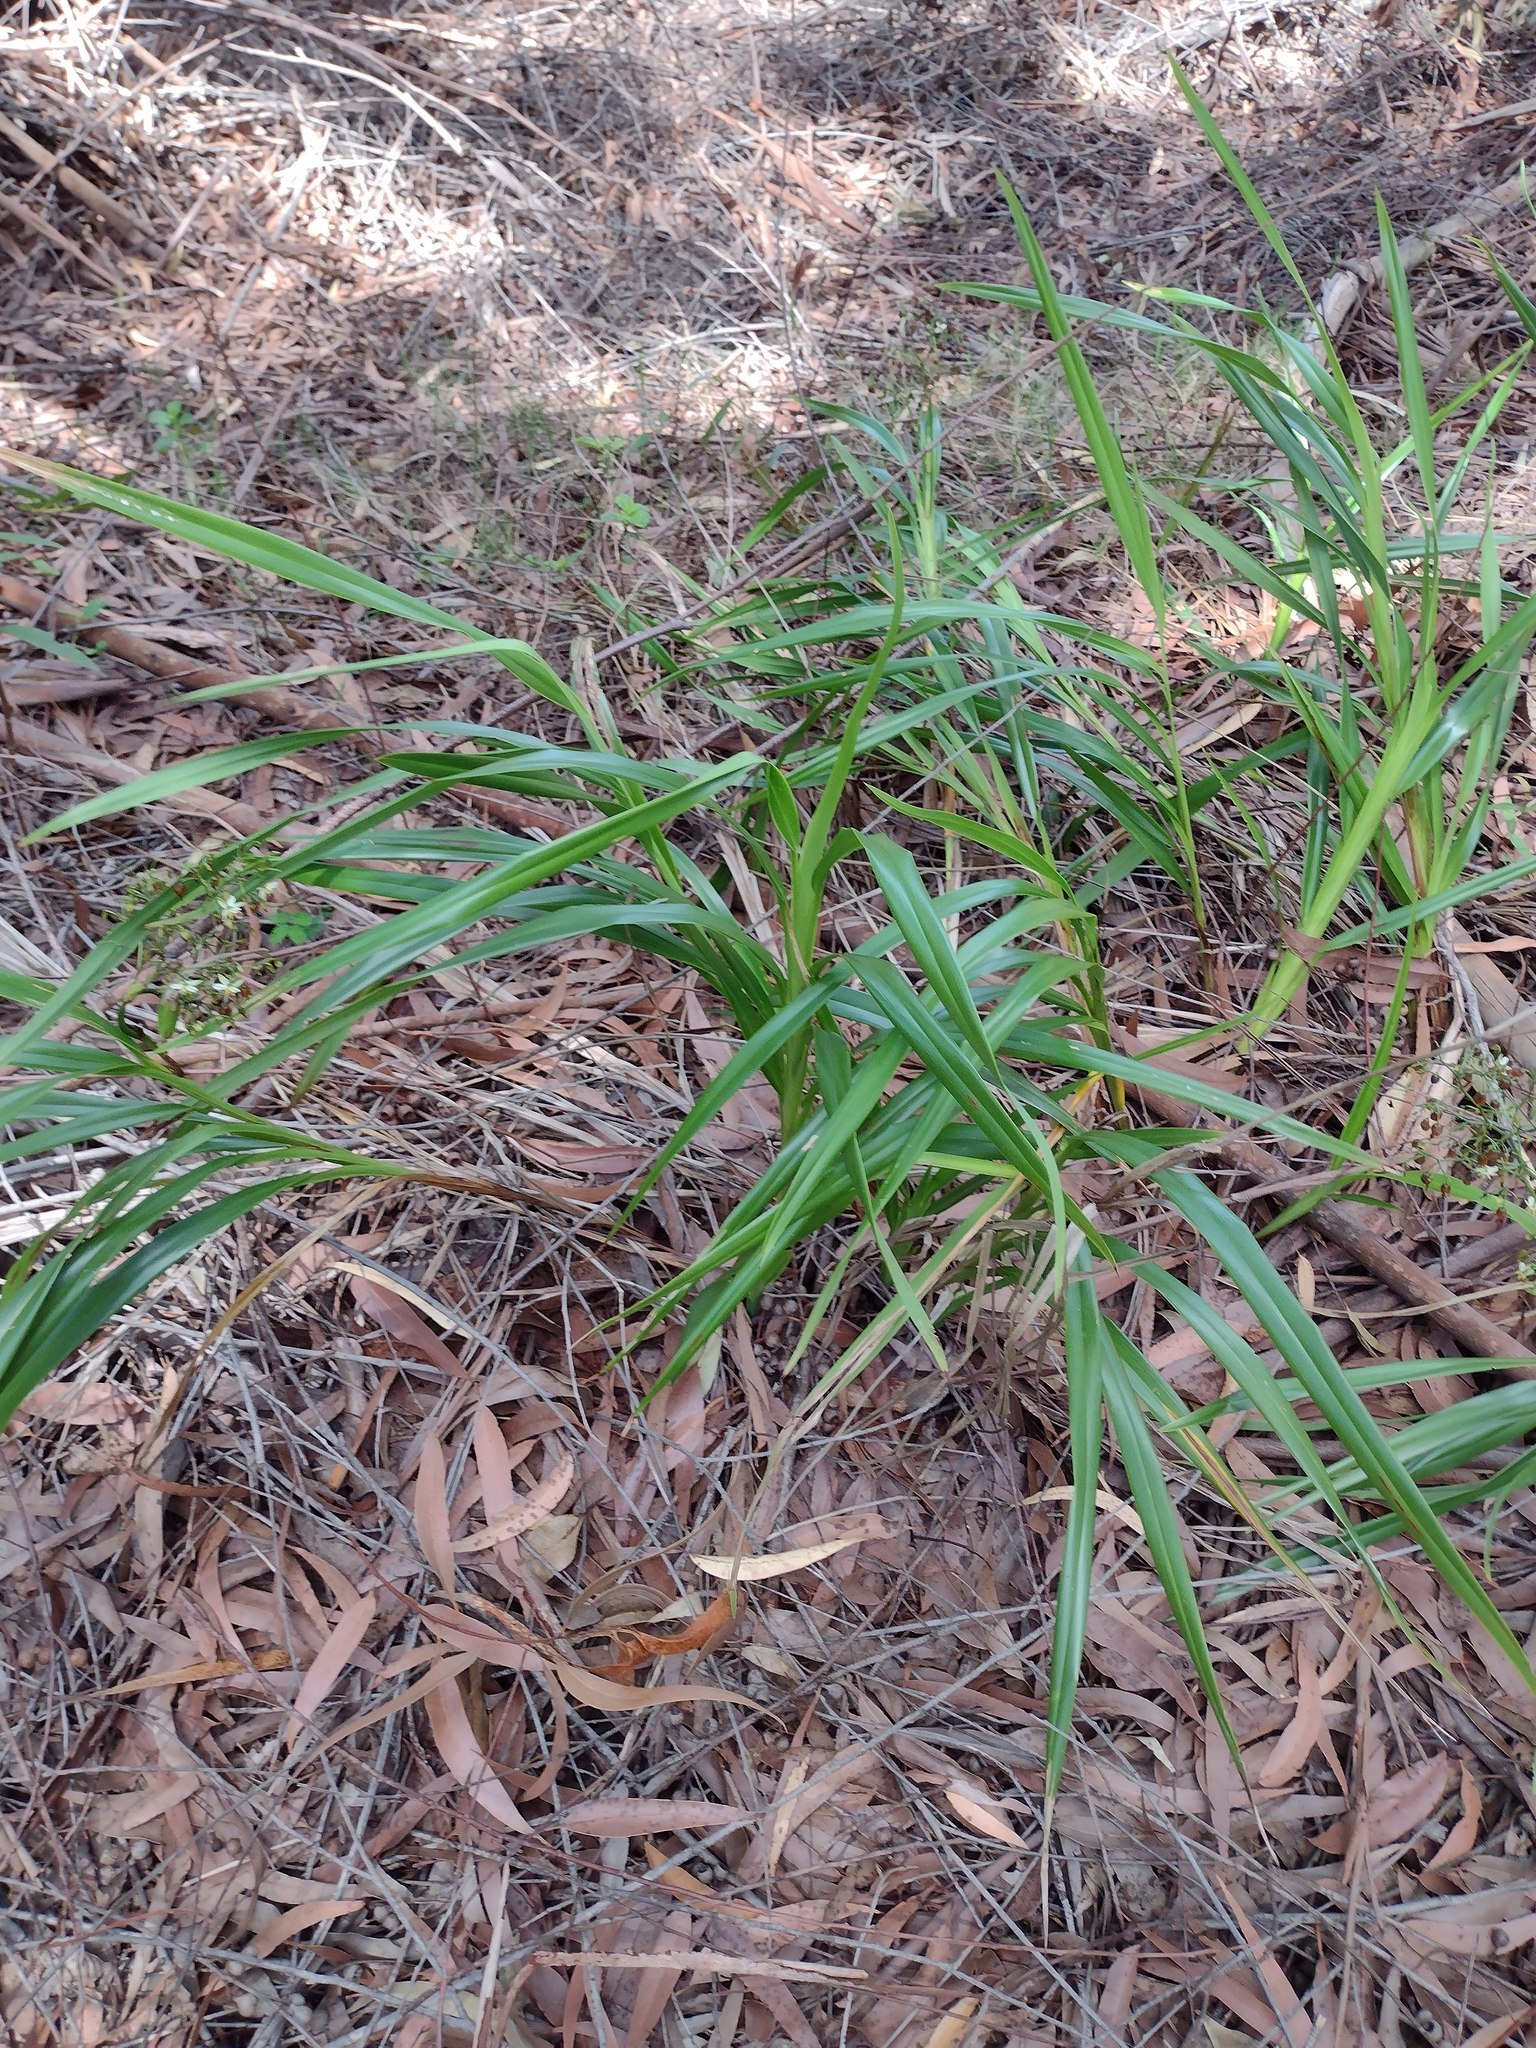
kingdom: Plantae
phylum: Tracheophyta
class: Liliopsida
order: Asparagales
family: Asphodelaceae
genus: Dianella
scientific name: Dianella sandwicensis
